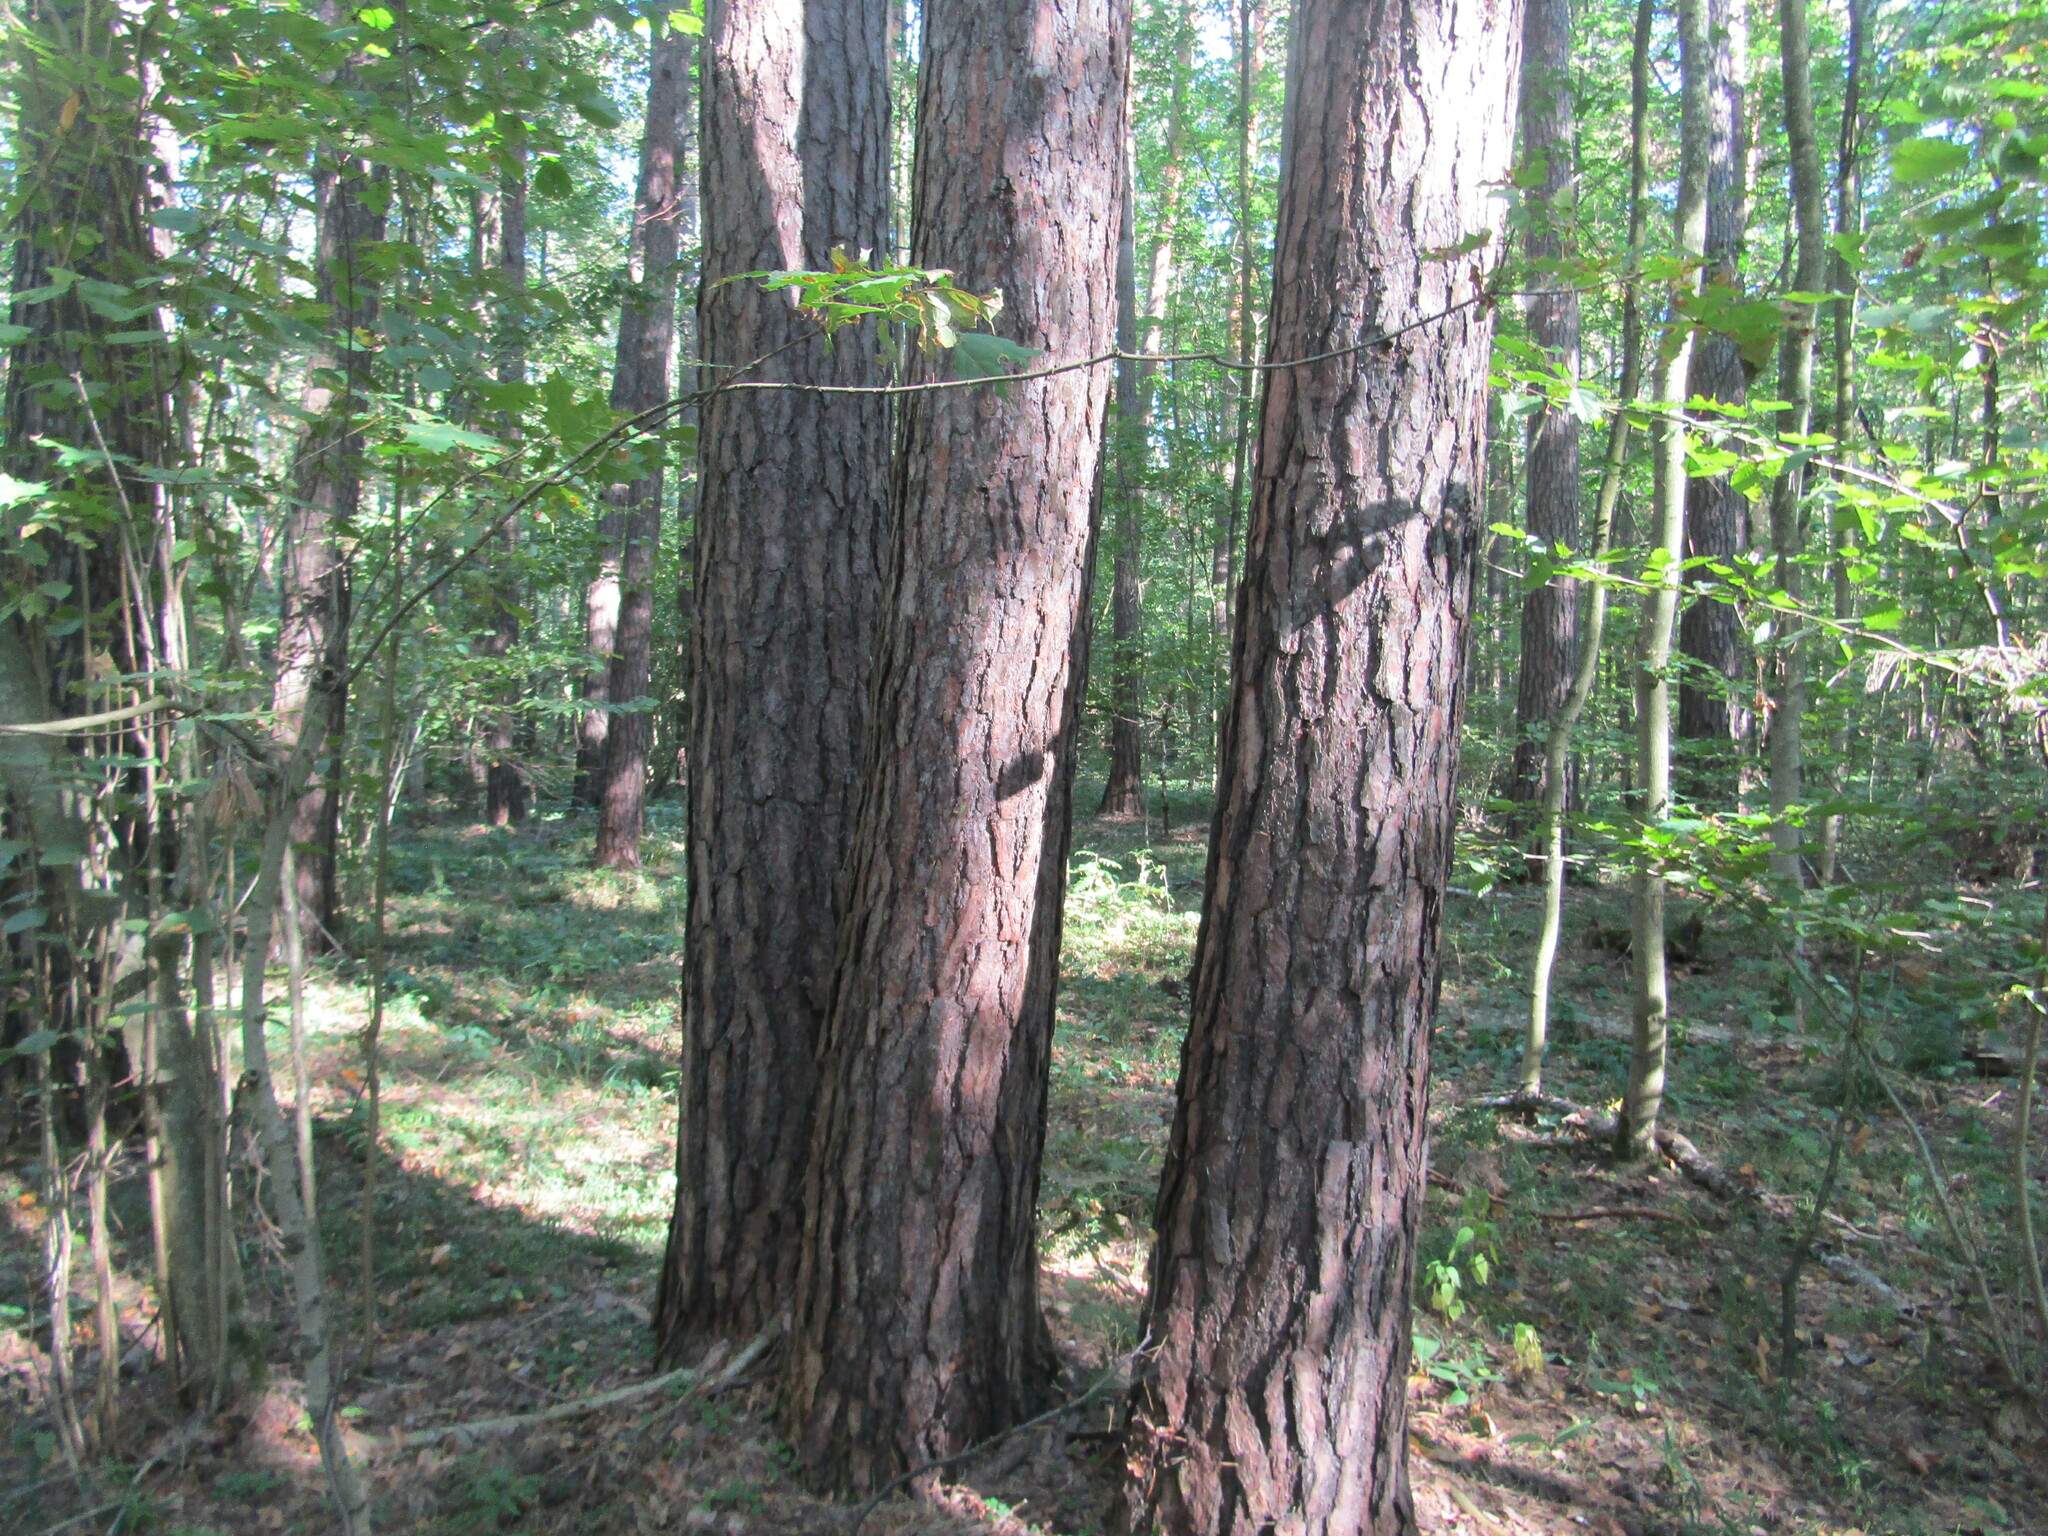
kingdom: Plantae
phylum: Tracheophyta
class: Pinopsida
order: Pinales
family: Pinaceae
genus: Pinus
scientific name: Pinus sylvestris
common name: Scots pine
